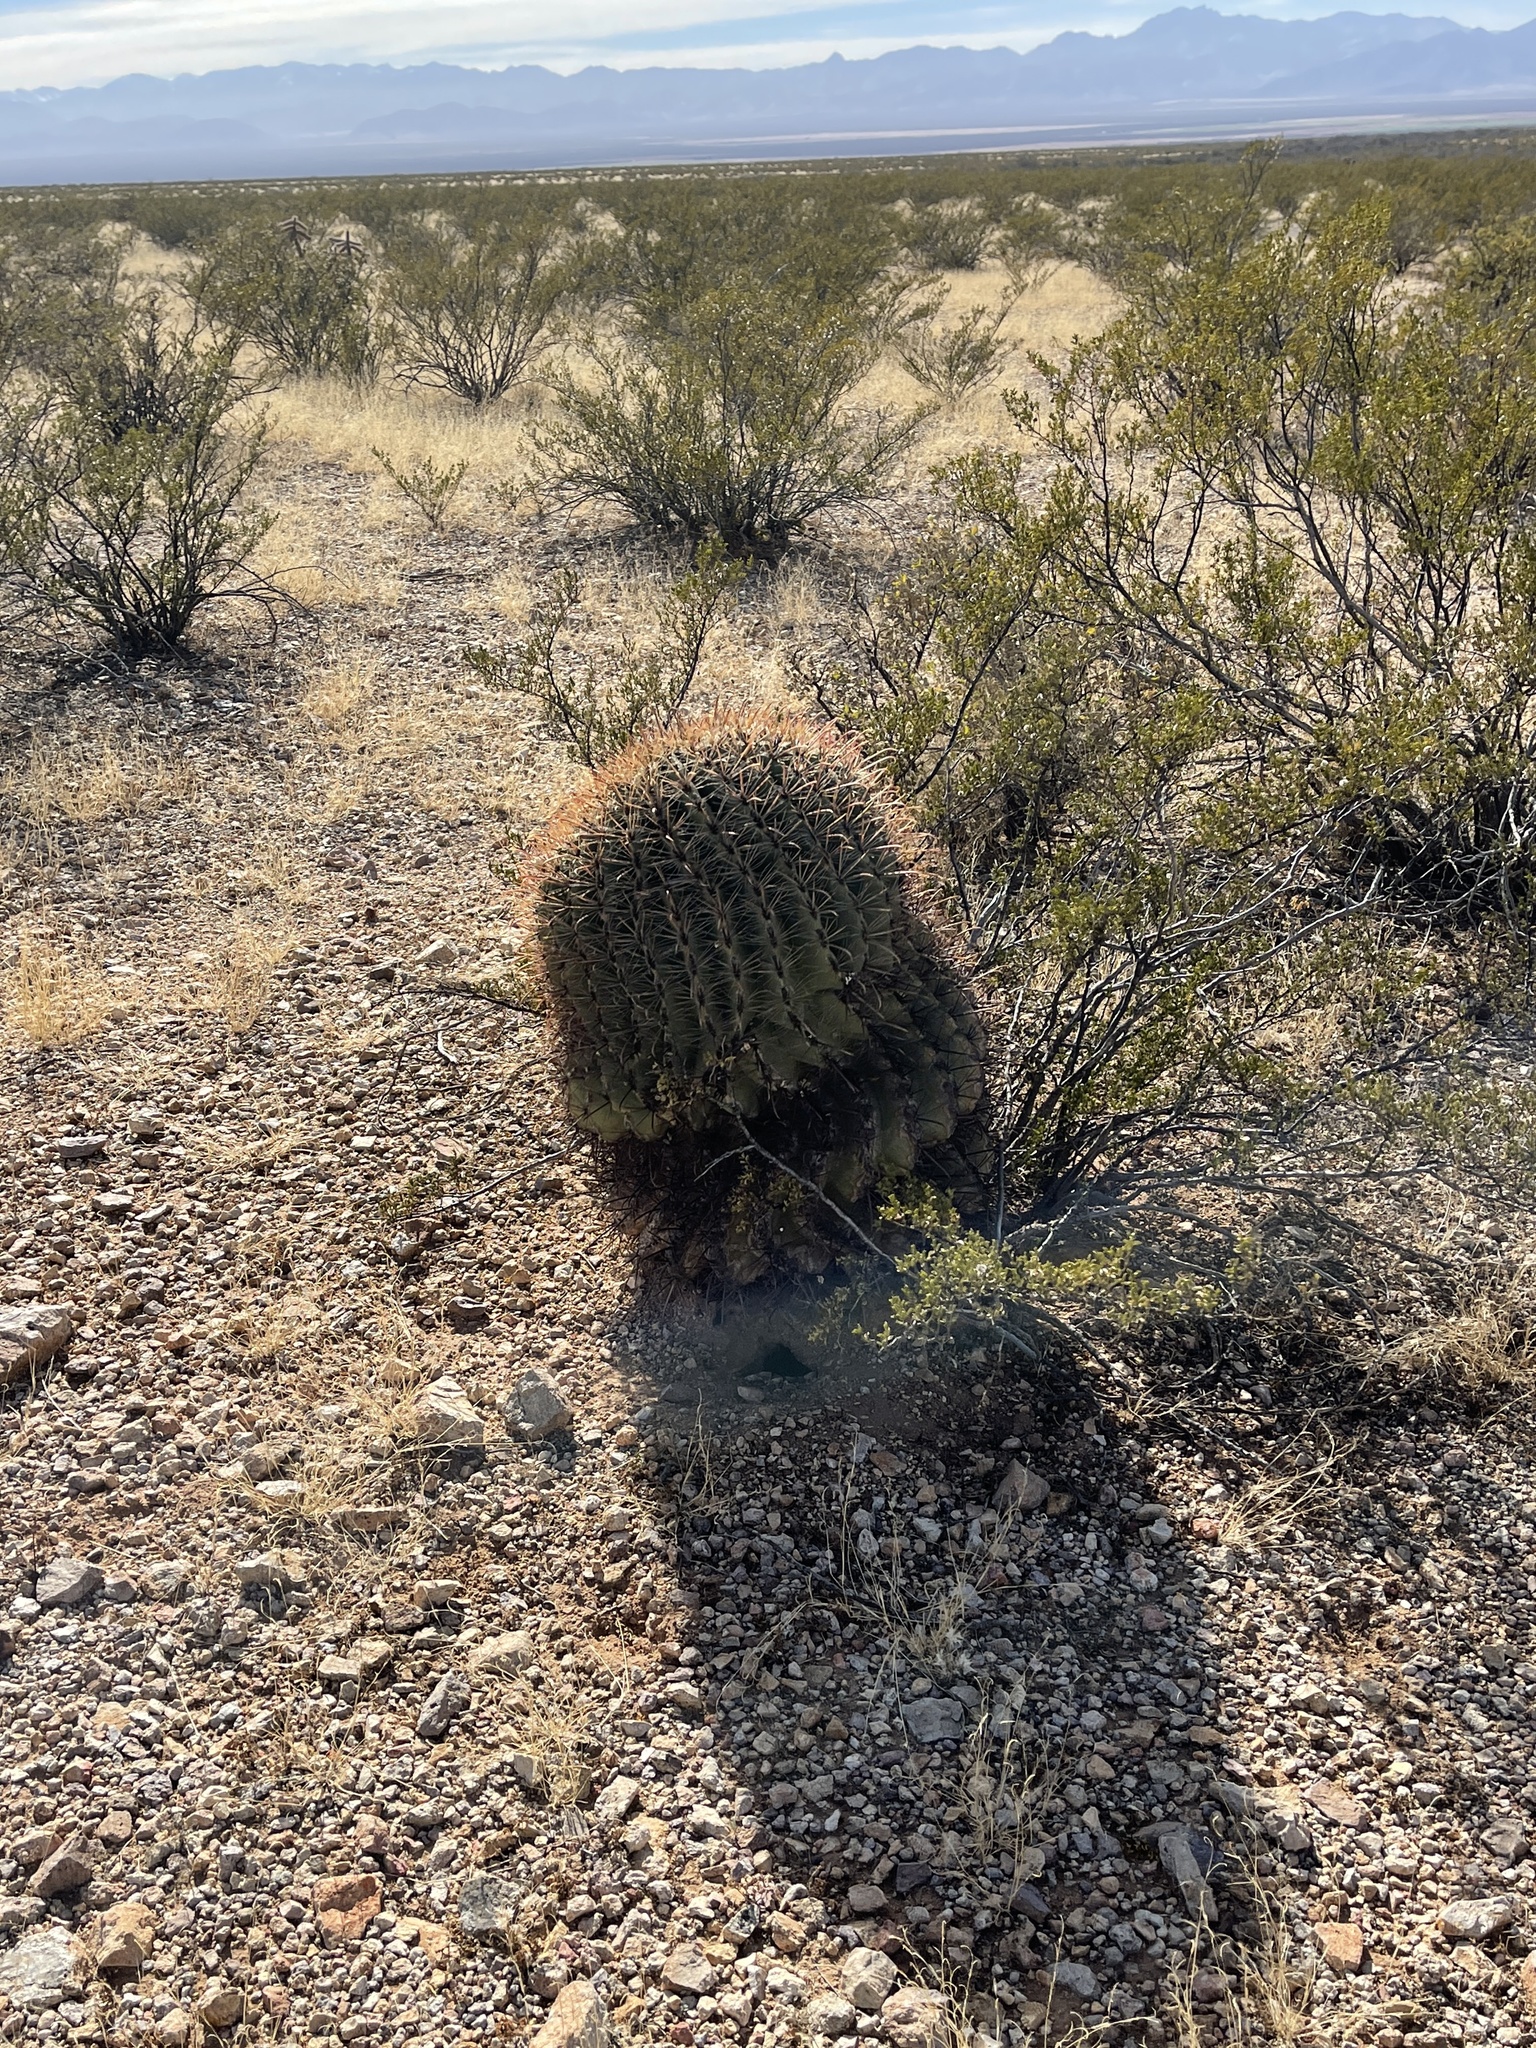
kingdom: Plantae
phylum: Tracheophyta
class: Magnoliopsida
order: Caryophyllales
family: Cactaceae
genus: Ferocactus
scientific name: Ferocactus wislizeni
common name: Candy barrel cactus
